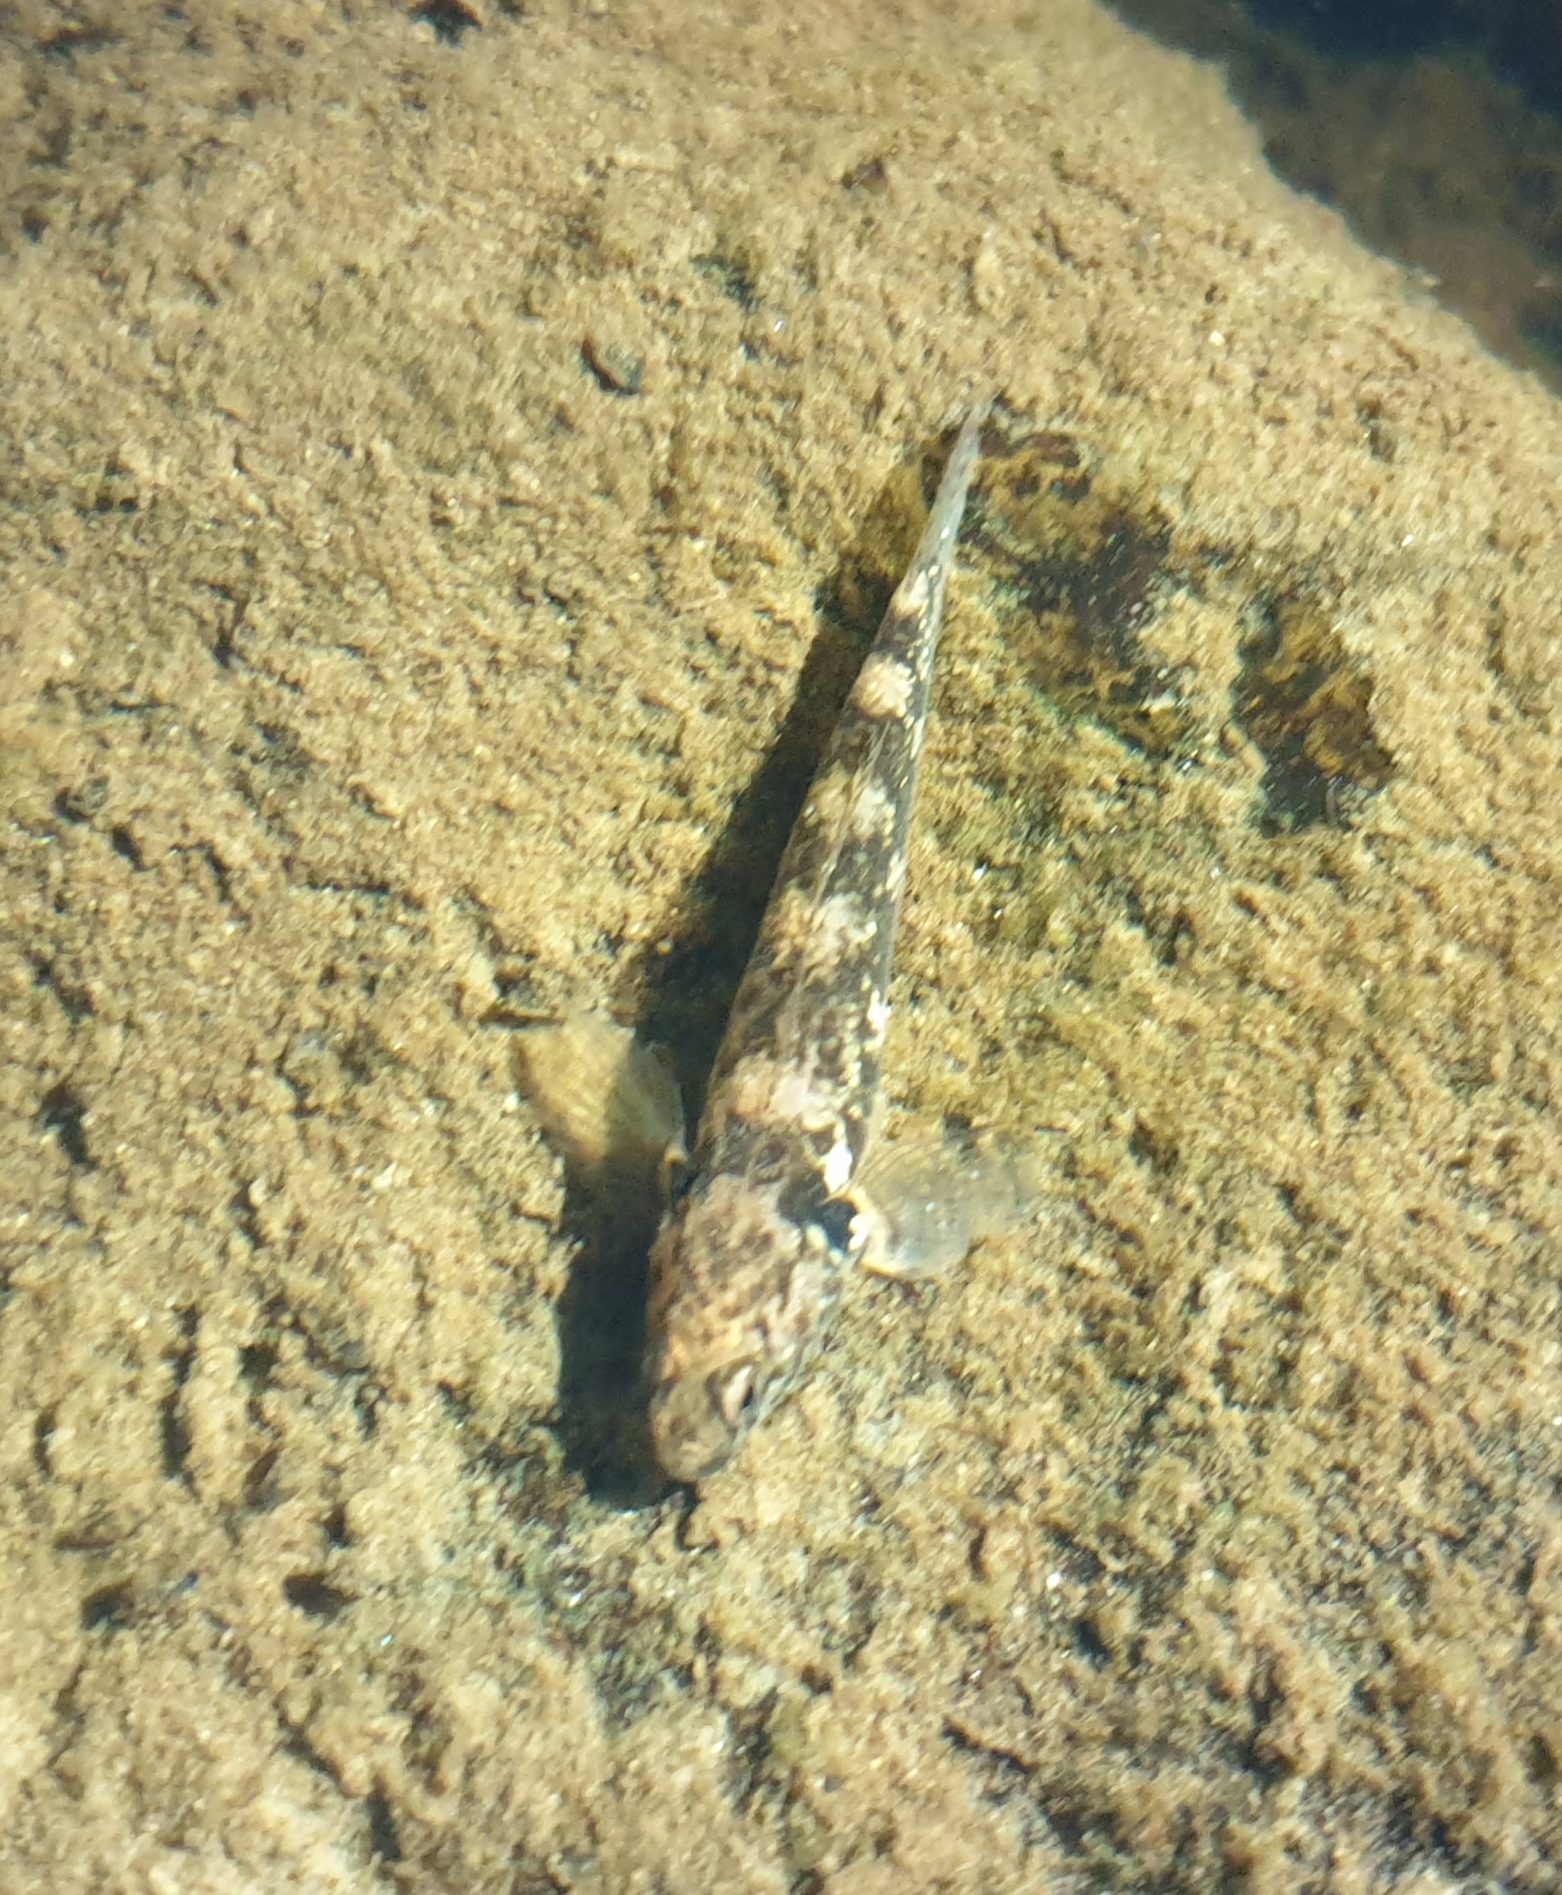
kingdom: Animalia
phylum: Chordata
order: Perciformes
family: Eleotridae
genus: Gobiomorphus
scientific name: Gobiomorphus huttoni
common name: Redfin bully
